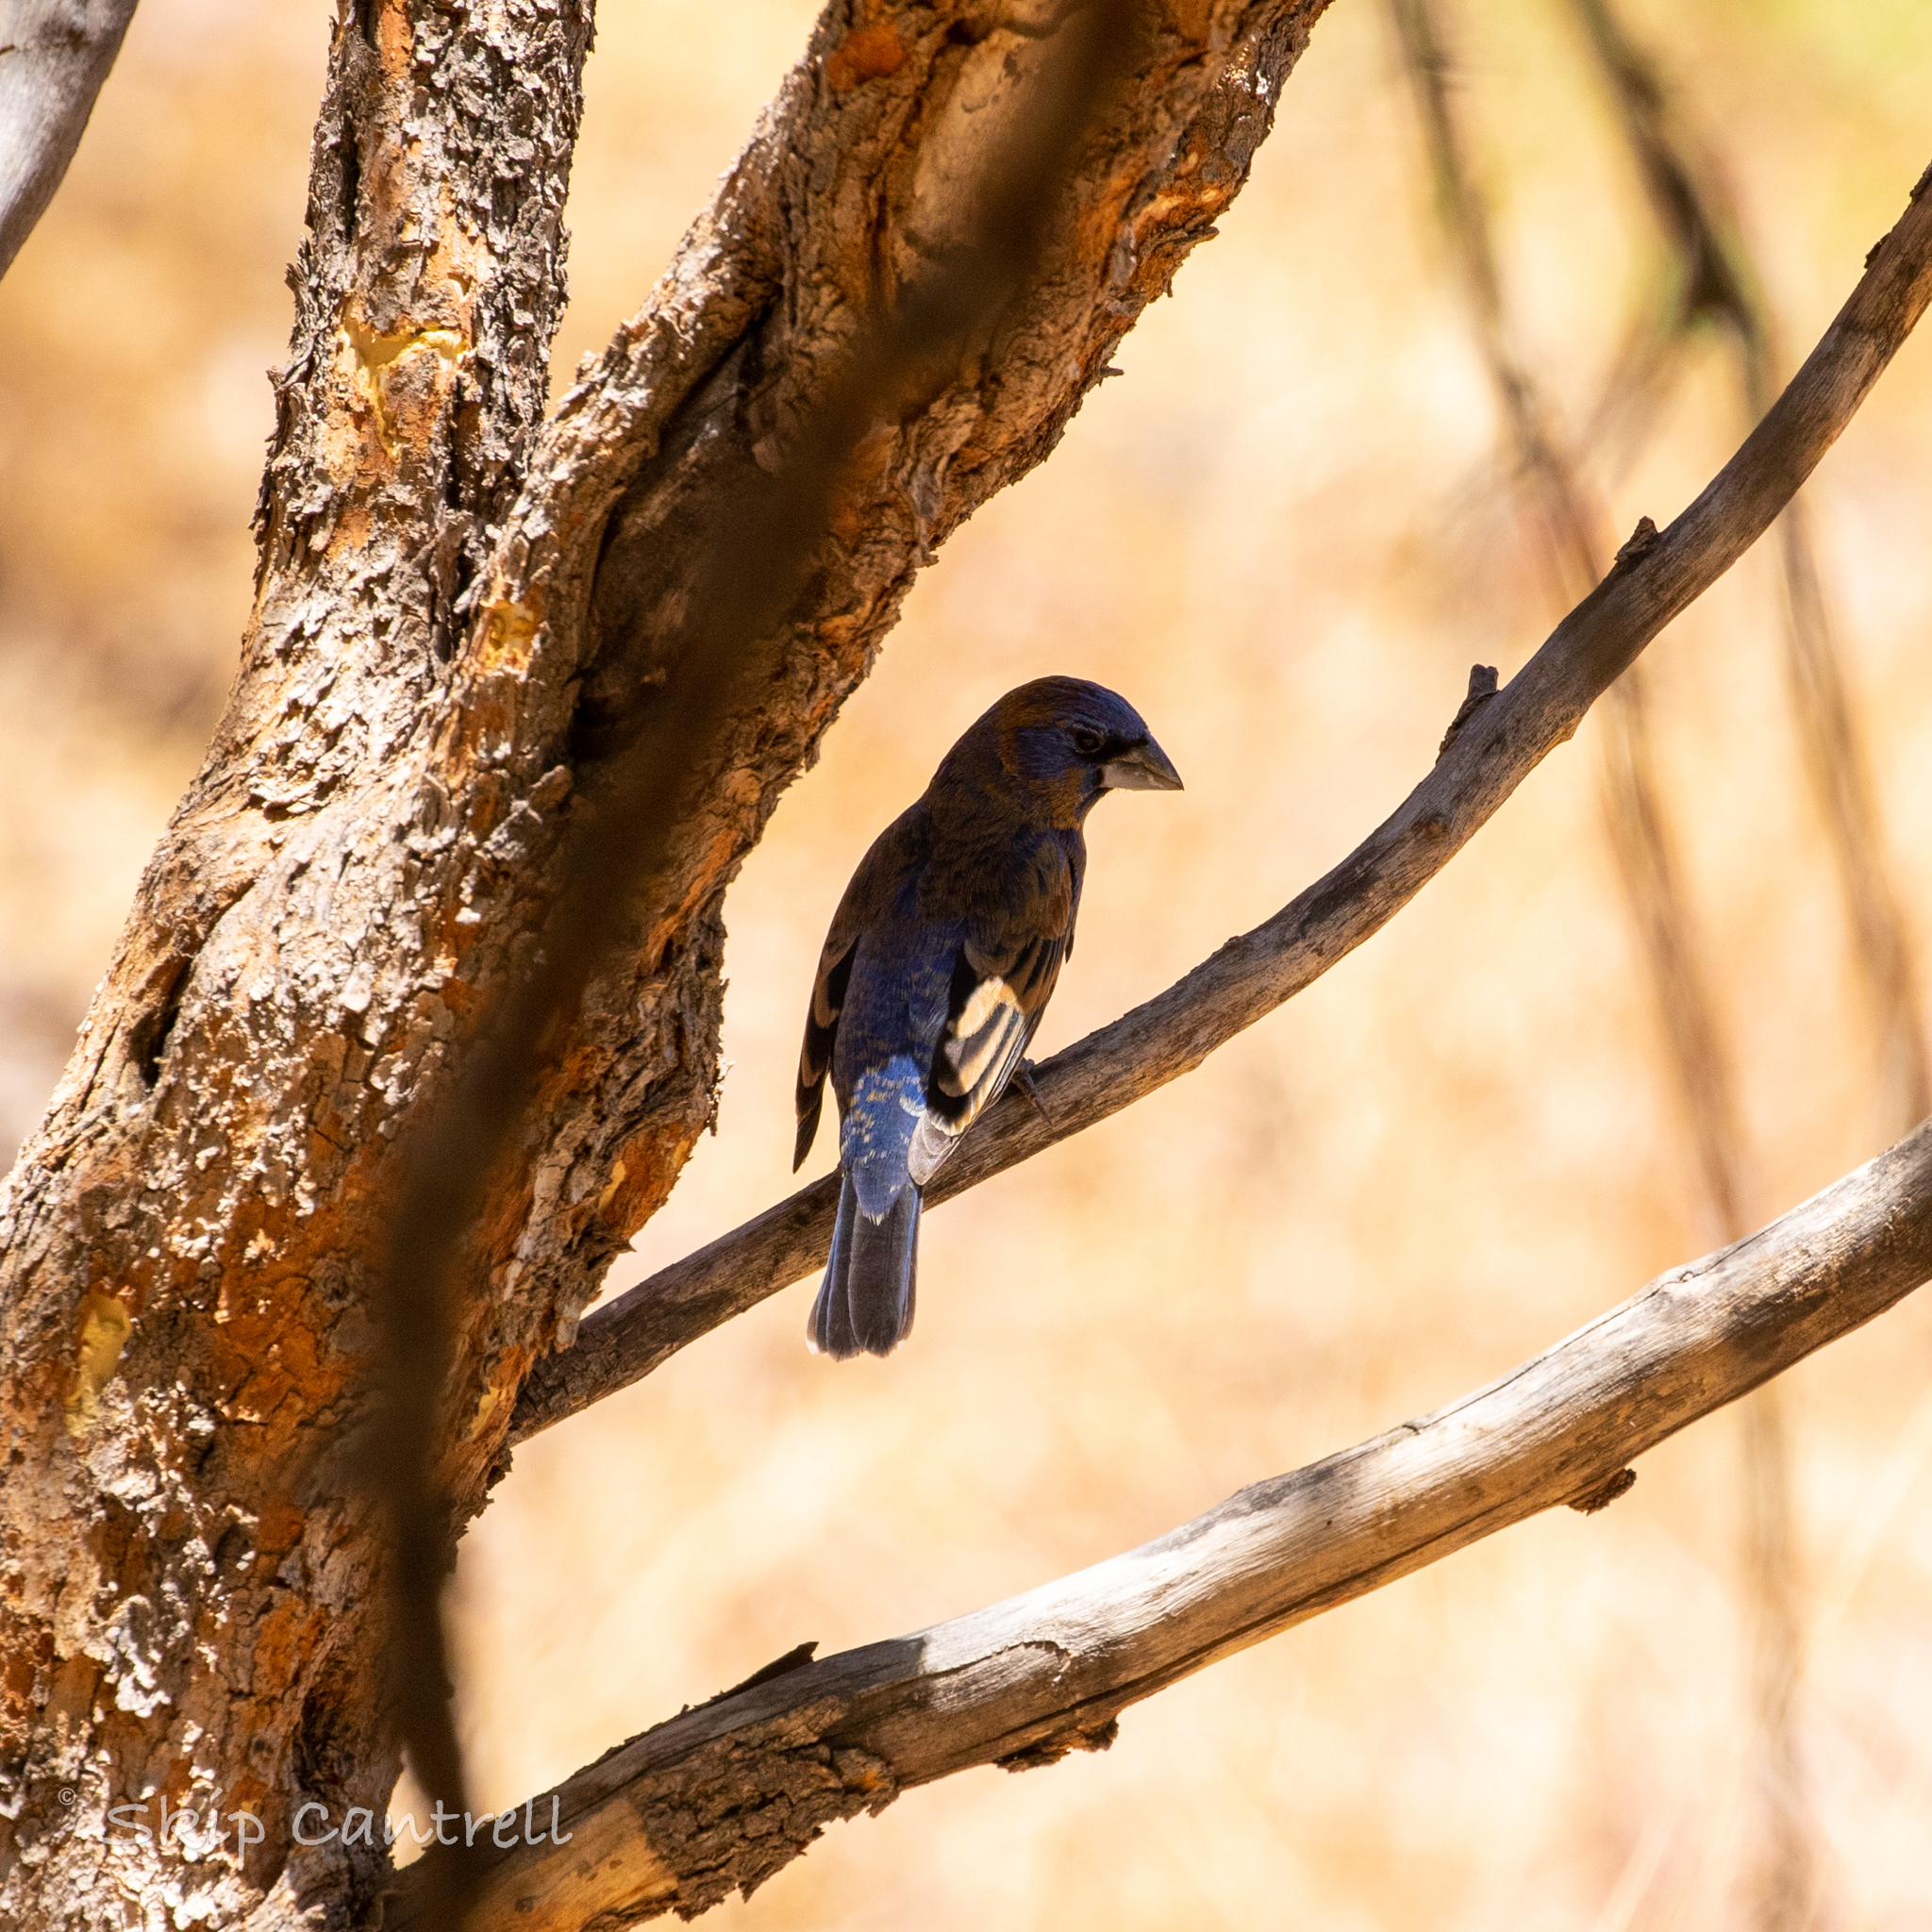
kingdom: Animalia
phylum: Chordata
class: Aves
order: Passeriformes
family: Cardinalidae
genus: Passerina
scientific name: Passerina caerulea
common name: Blue grosbeak
